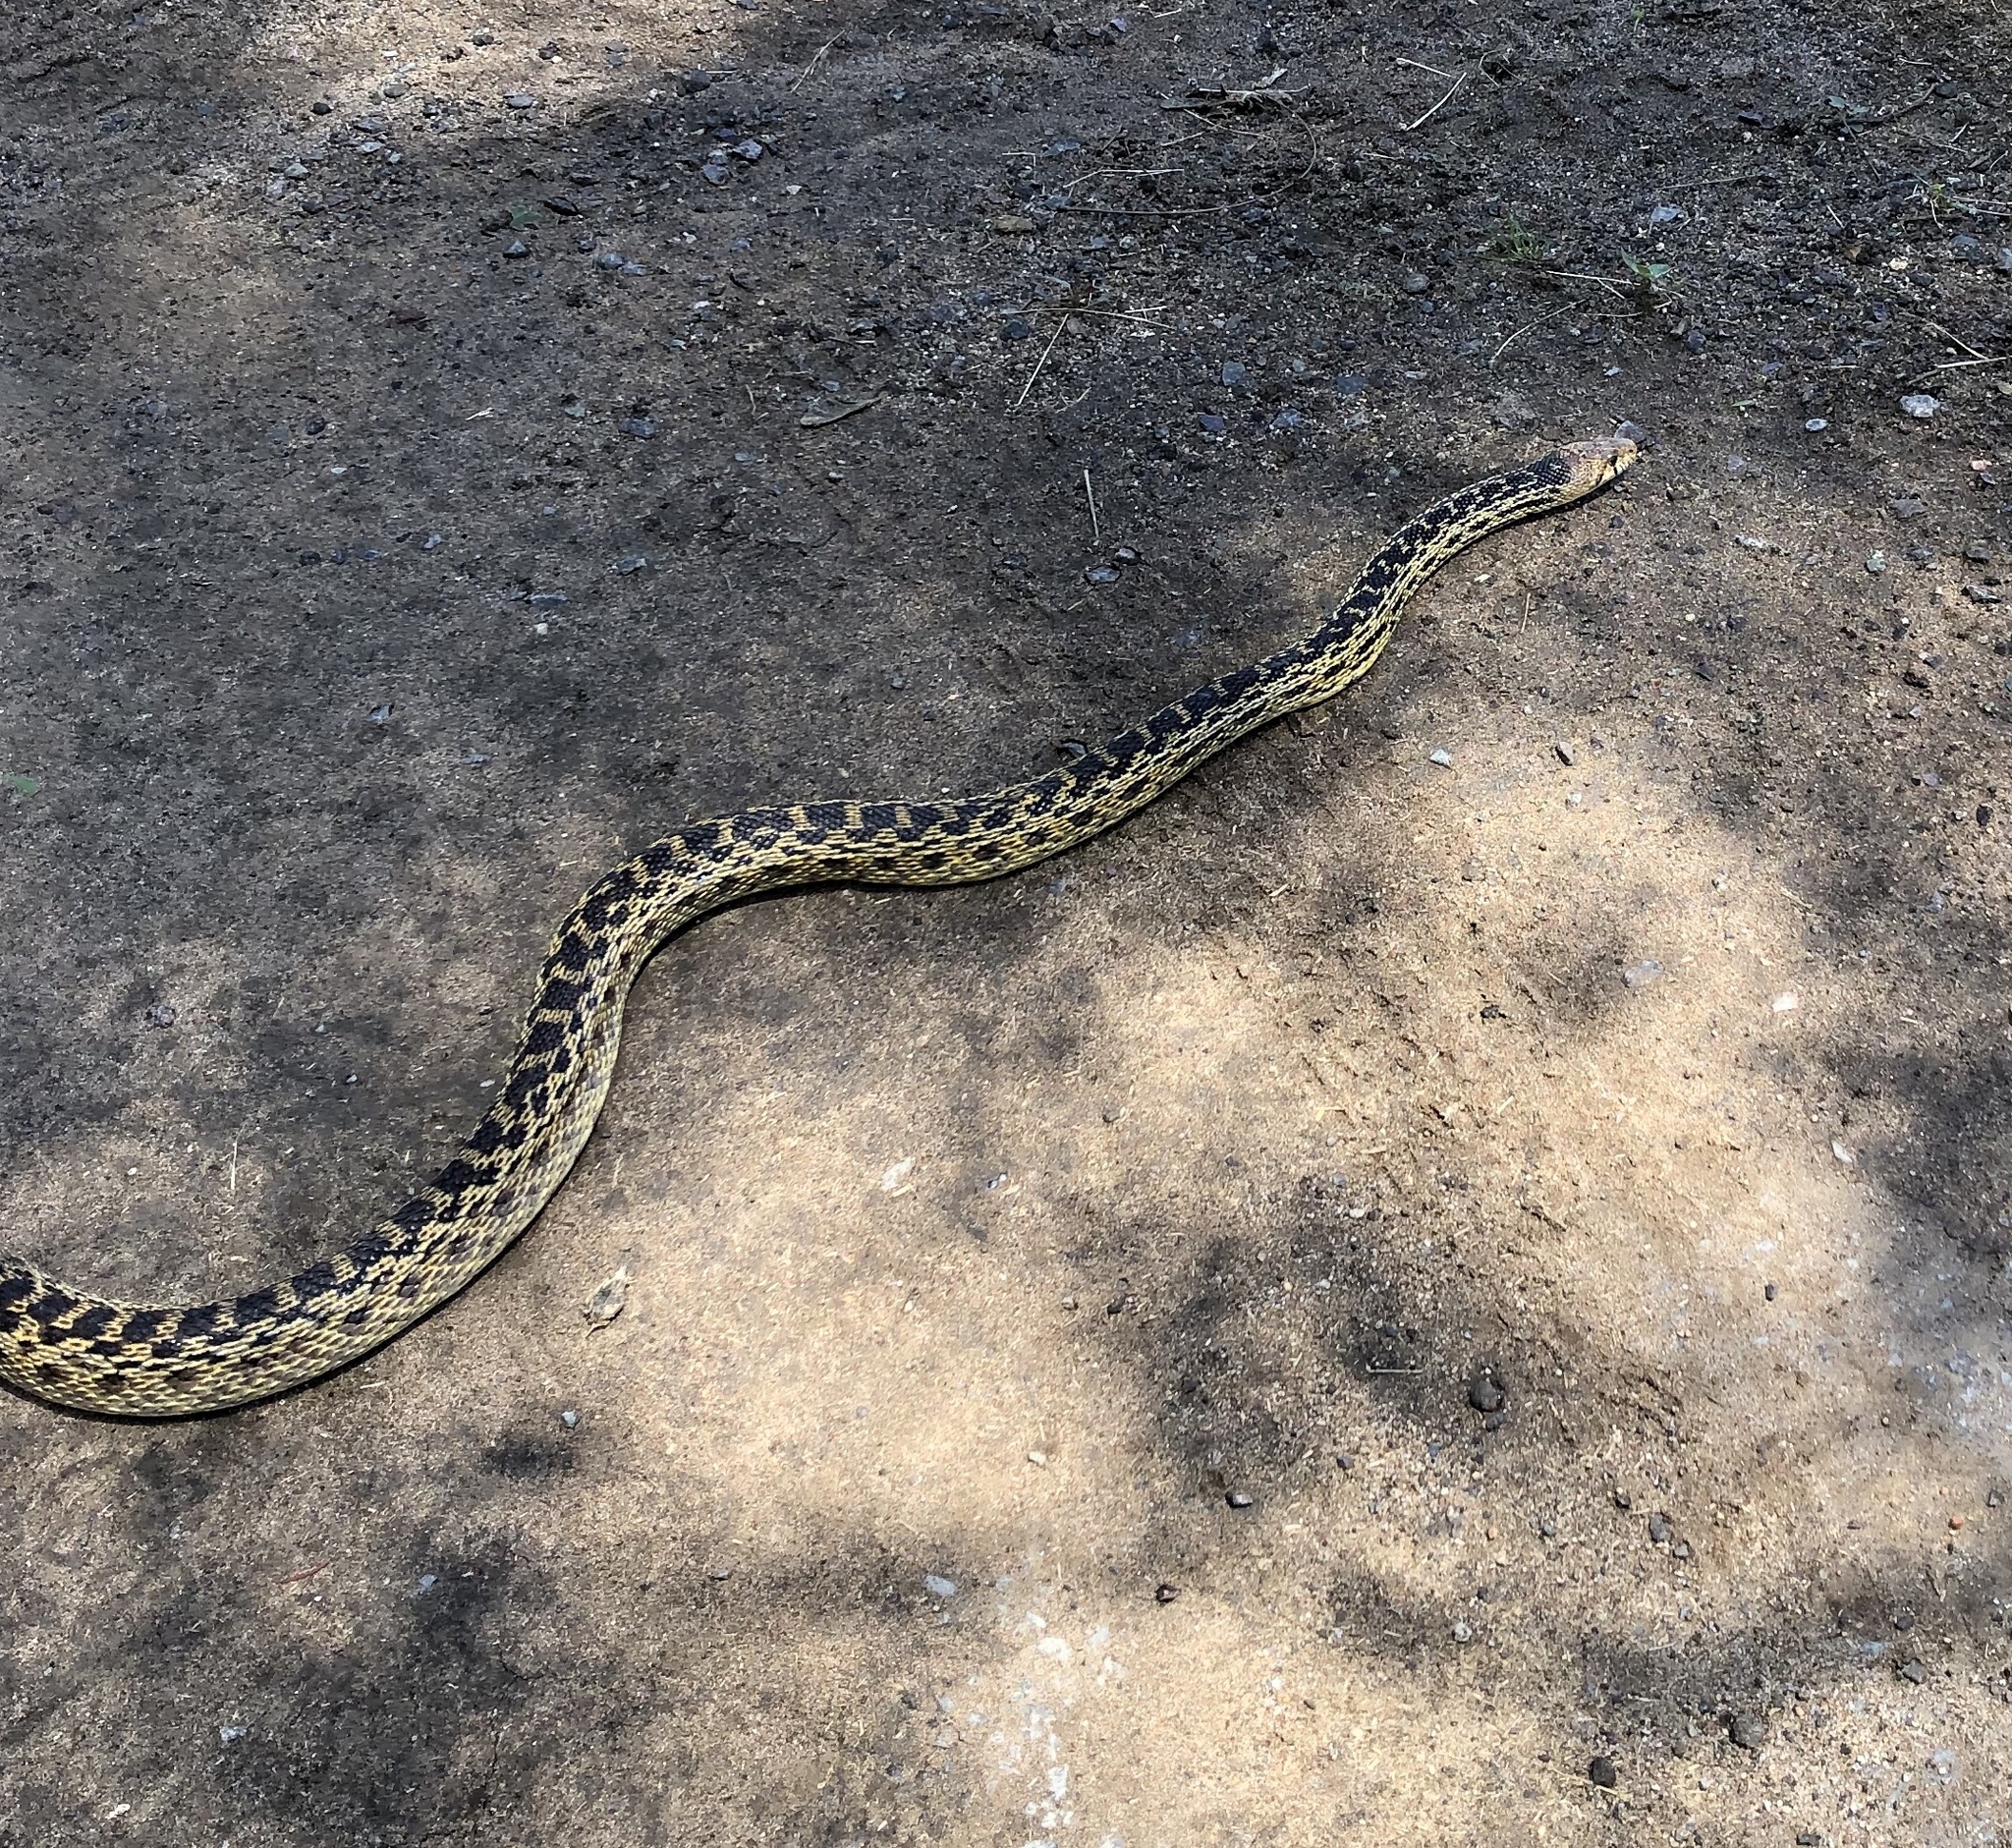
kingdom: Animalia
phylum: Chordata
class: Squamata
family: Colubridae
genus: Pituophis
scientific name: Pituophis catenifer
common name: Gopher snake
